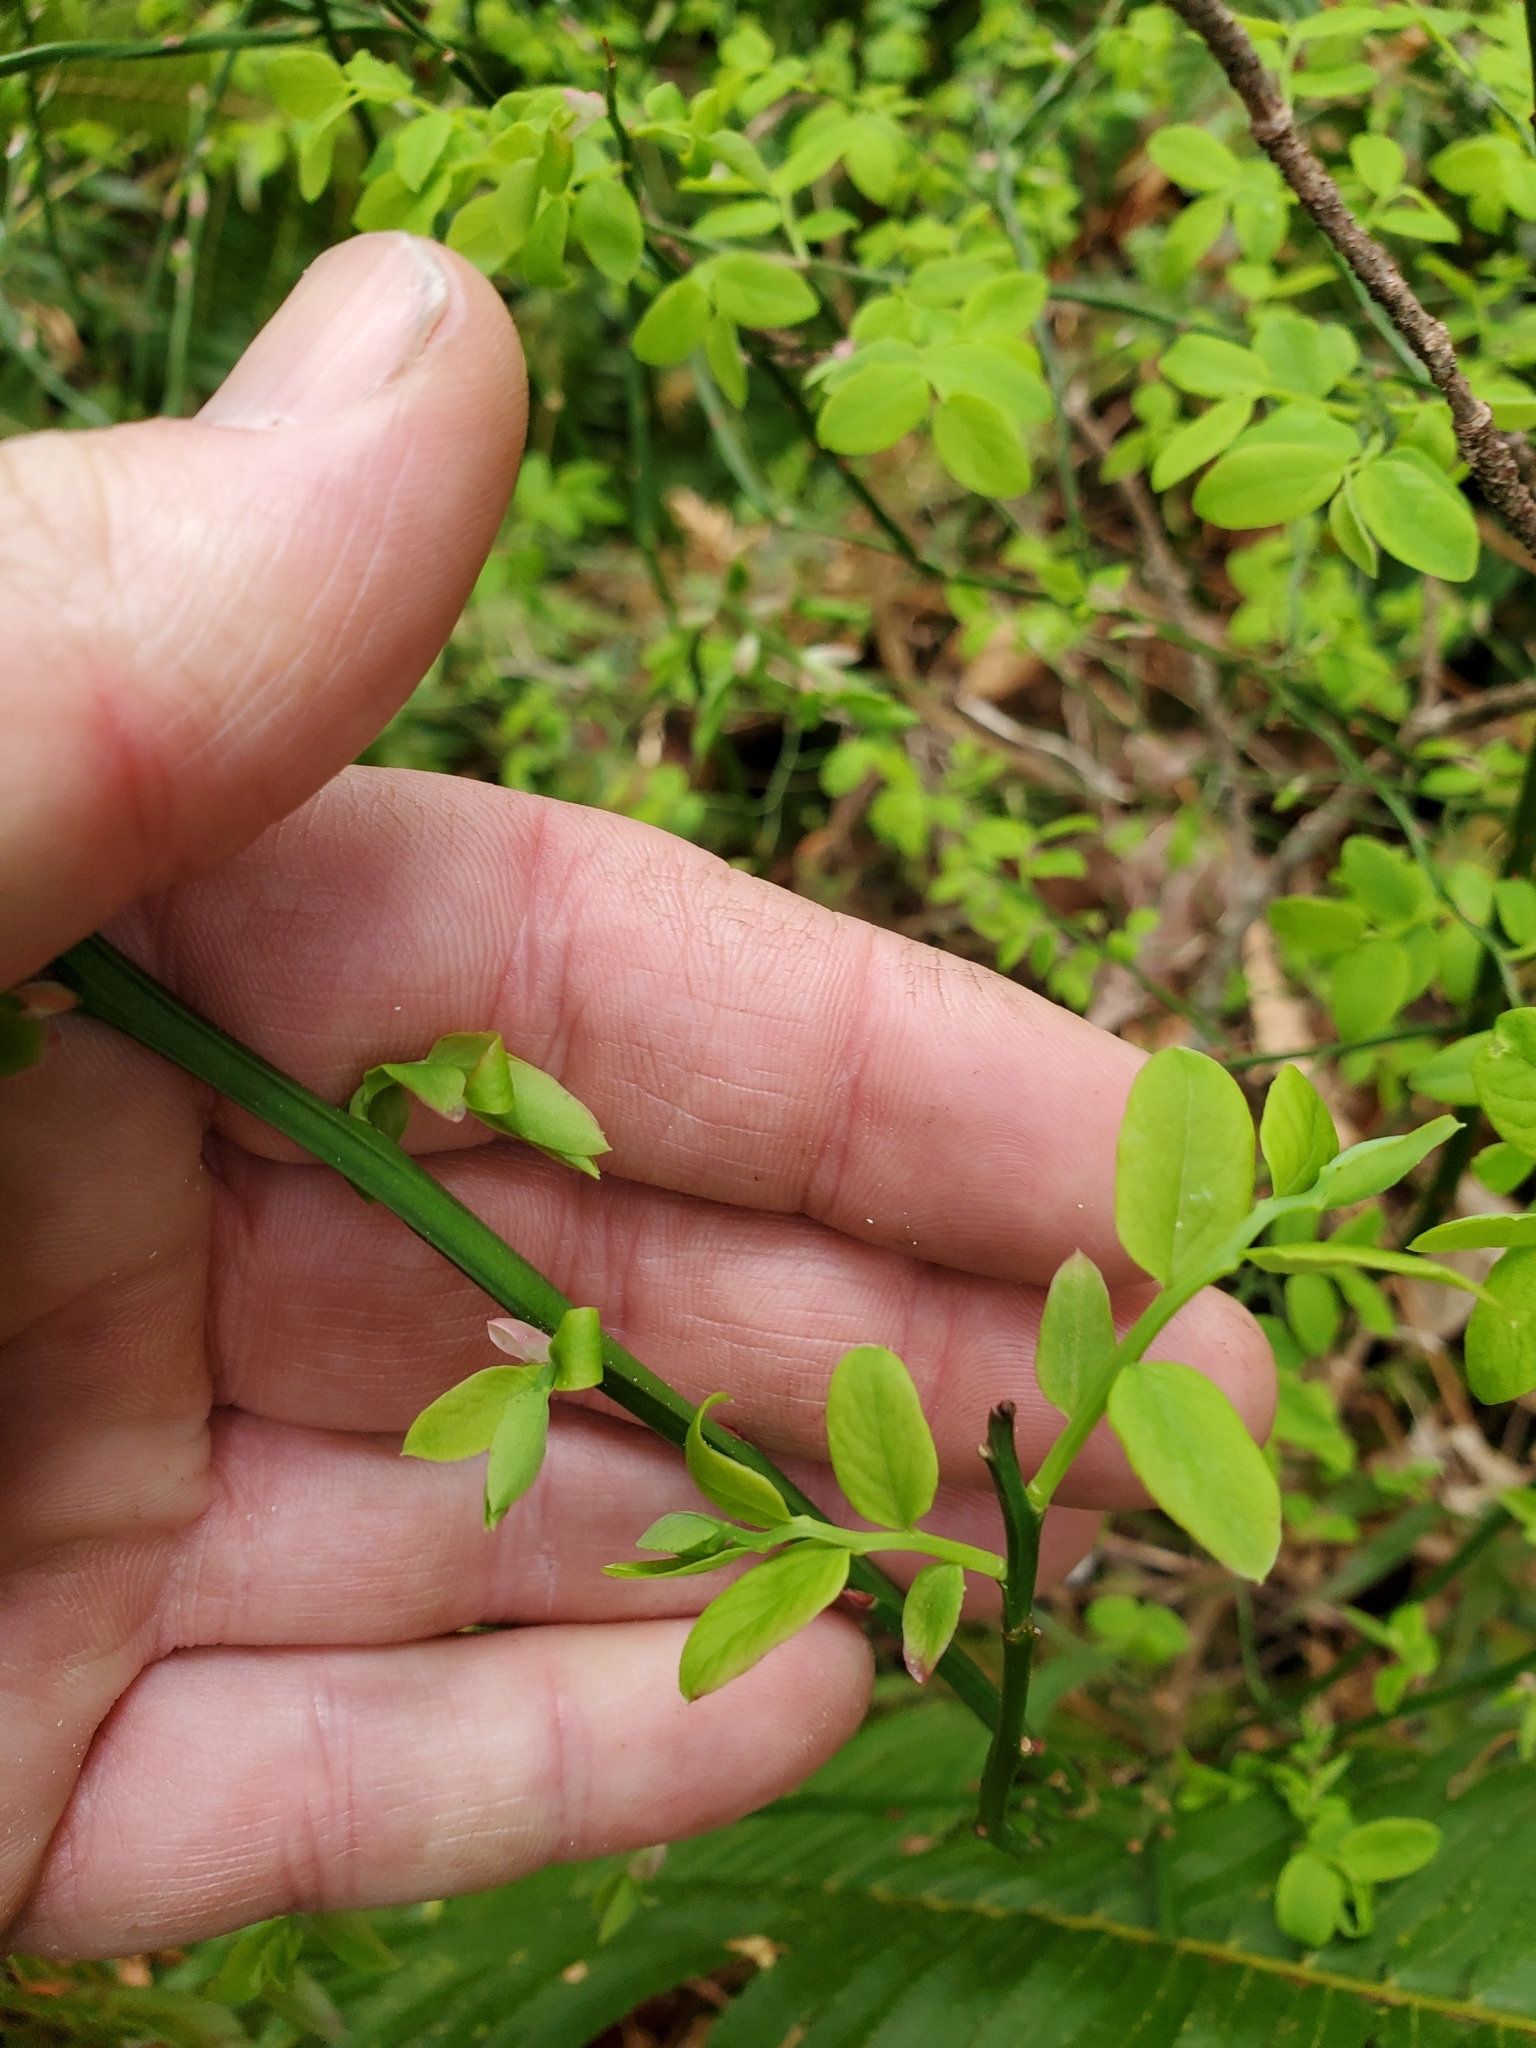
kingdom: Plantae
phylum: Tracheophyta
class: Magnoliopsida
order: Ericales
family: Ericaceae
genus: Vaccinium
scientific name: Vaccinium parvifolium
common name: Red-huckleberry
